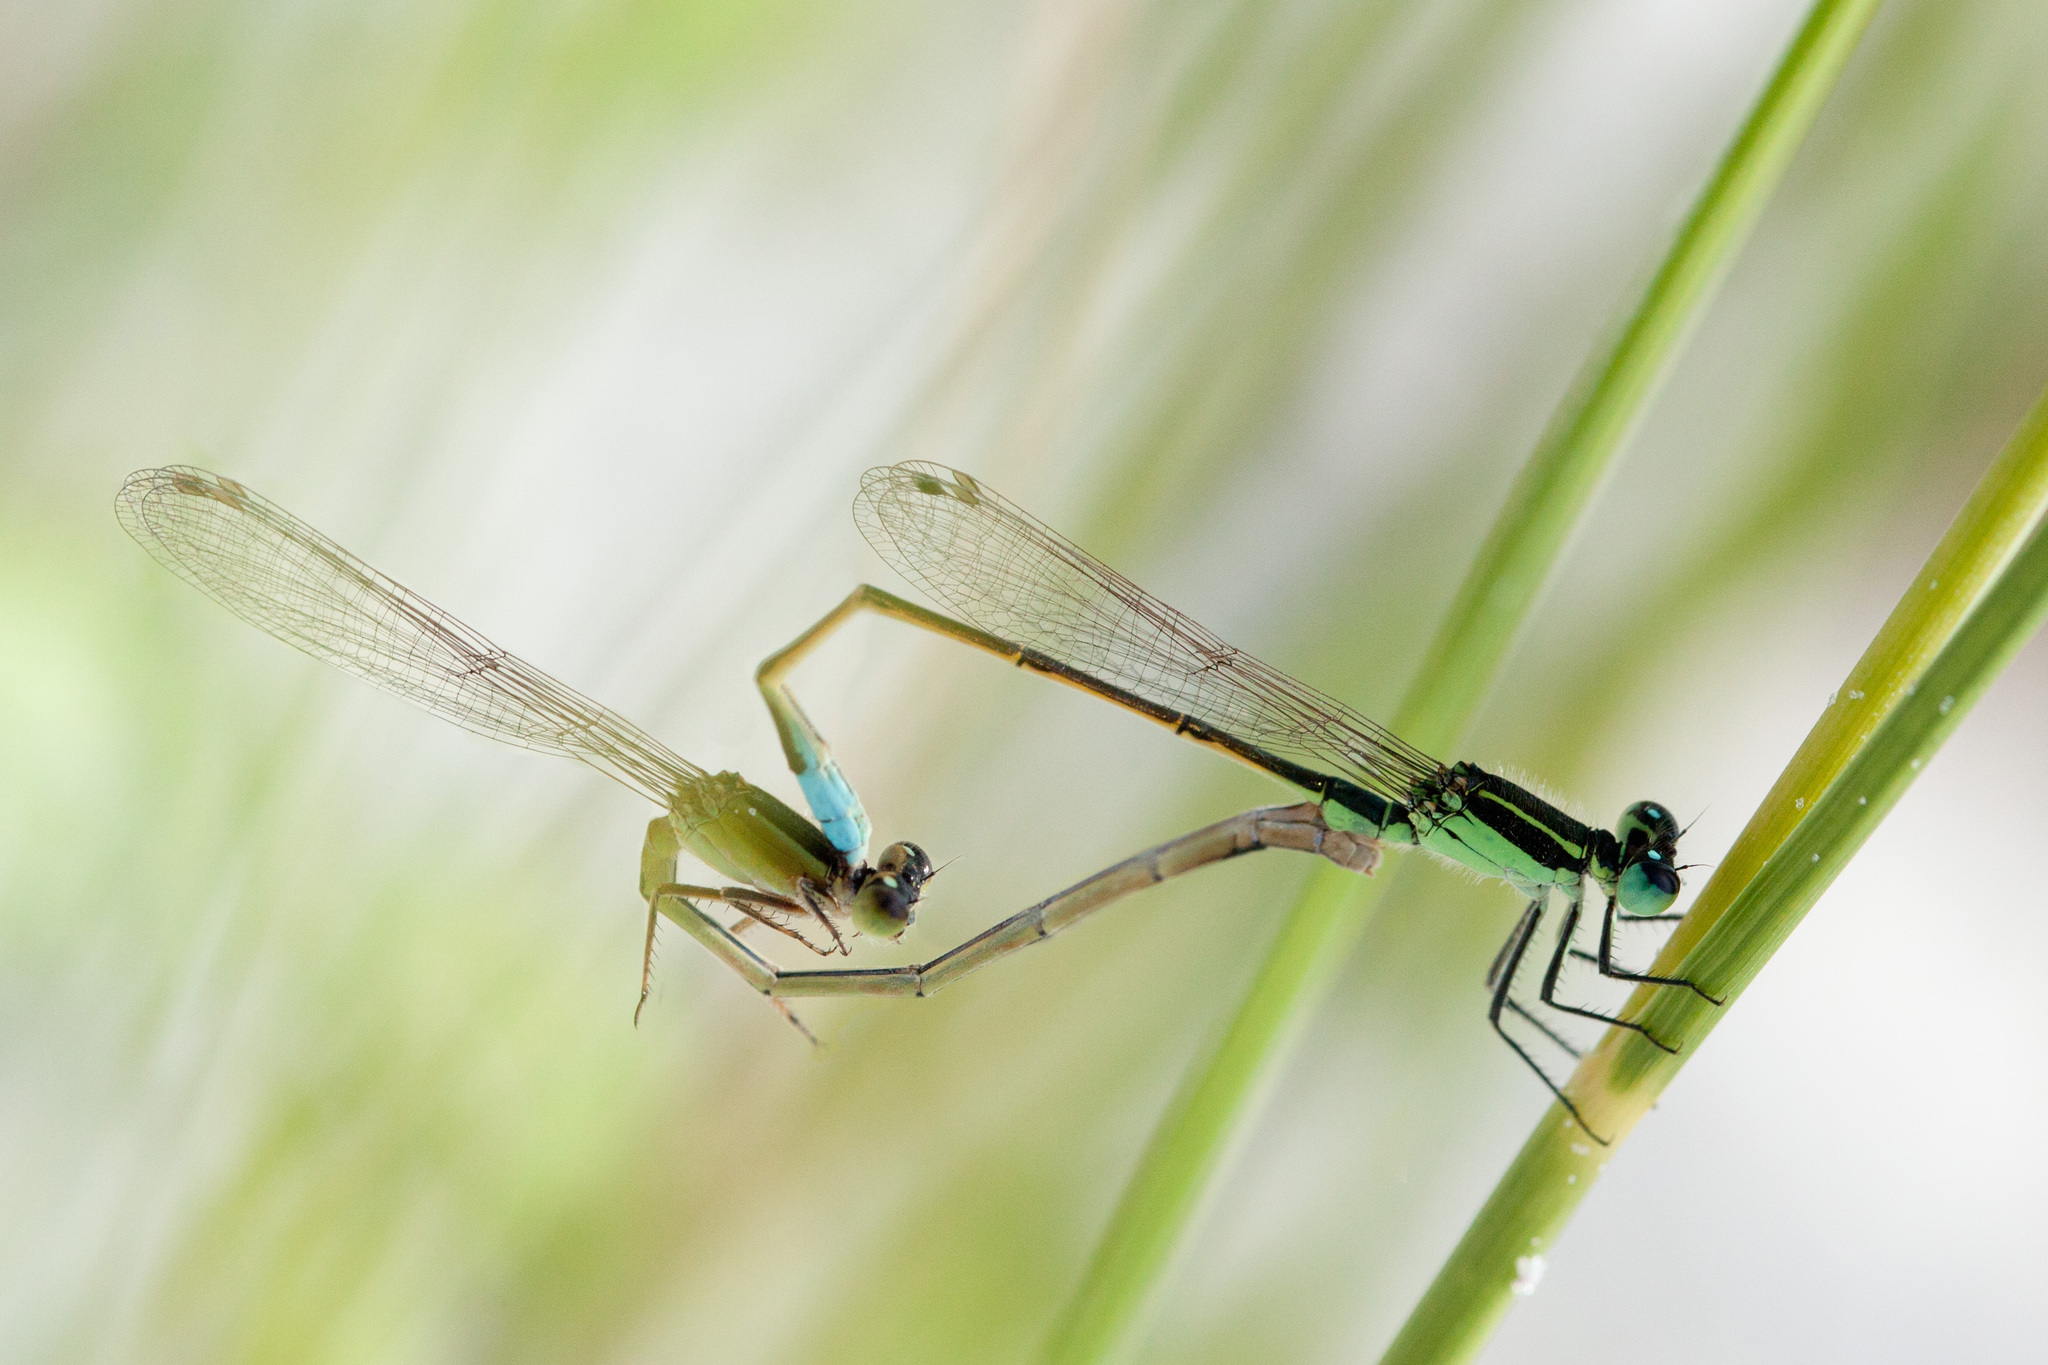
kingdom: Animalia
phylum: Arthropoda
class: Insecta
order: Odonata
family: Coenagrionidae
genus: Ischnura
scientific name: Ischnura ramburii
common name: Rambur's forktail
